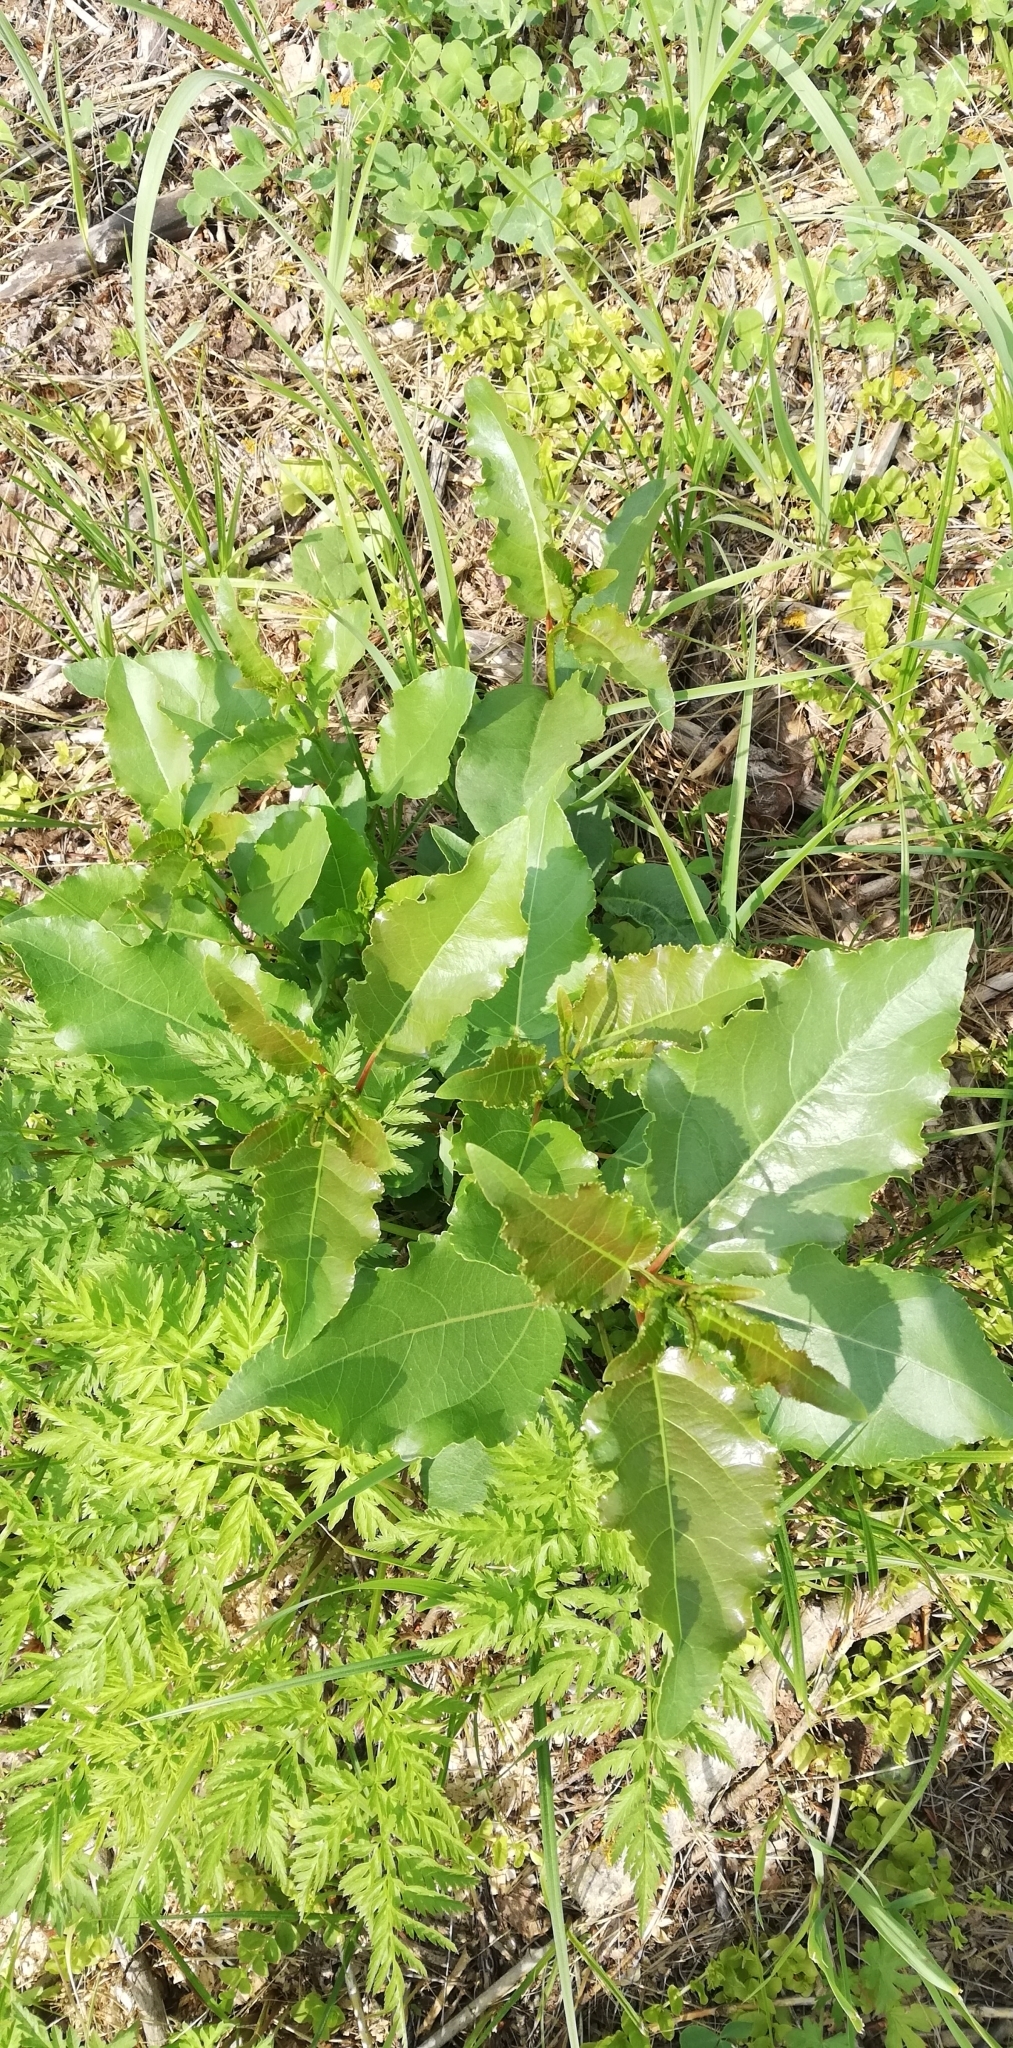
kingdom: Plantae
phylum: Tracheophyta
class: Magnoliopsida
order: Malpighiales
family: Salicaceae
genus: Populus
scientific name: Populus
